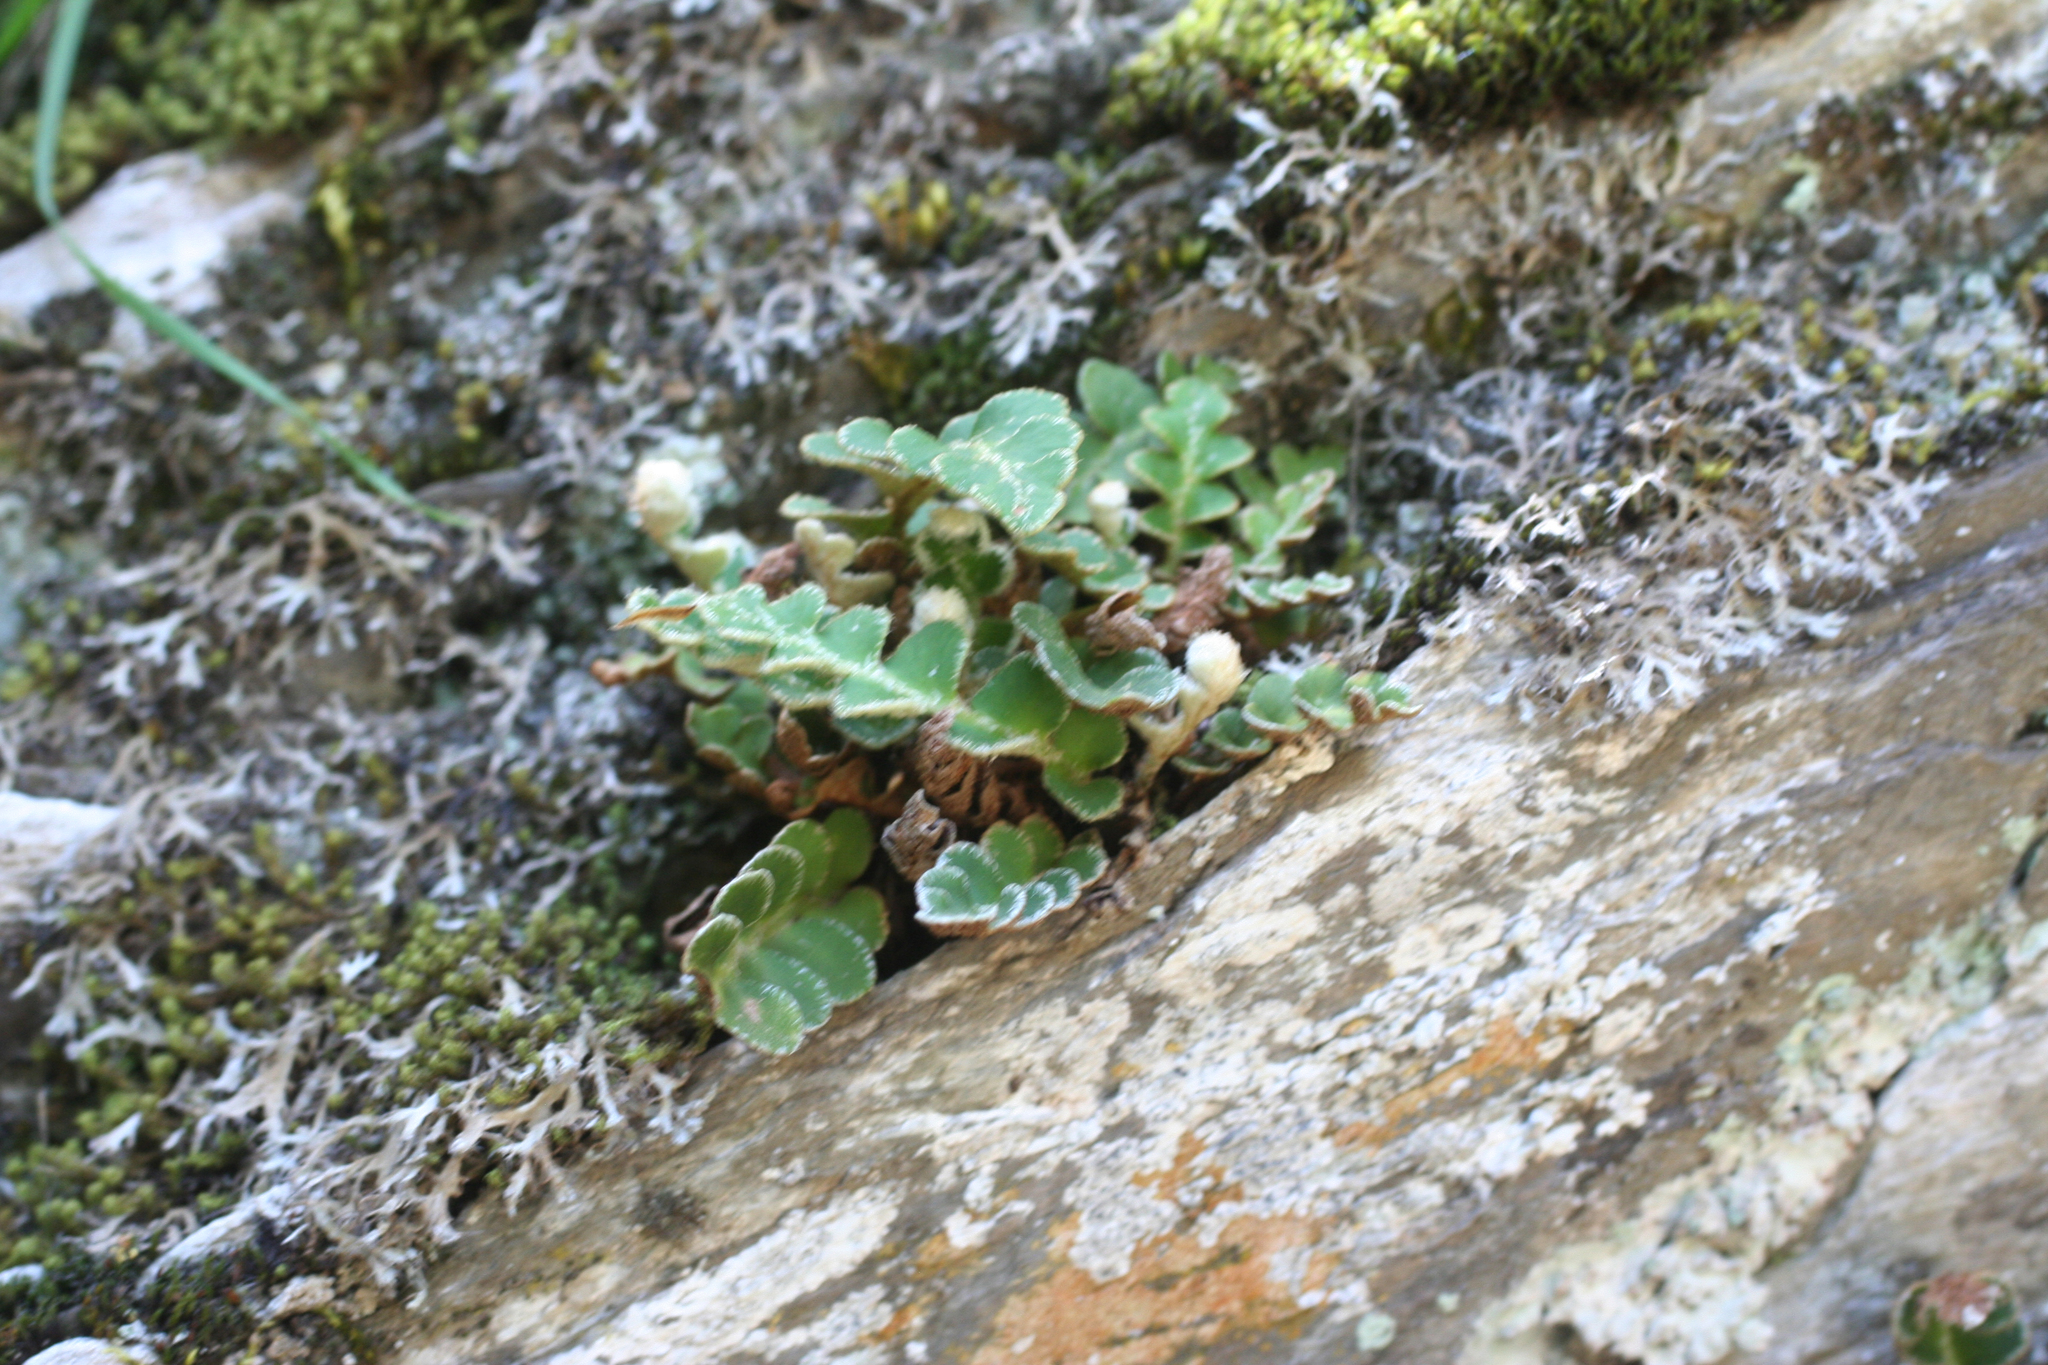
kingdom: Plantae
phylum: Tracheophyta
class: Polypodiopsida
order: Polypodiales
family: Aspleniaceae
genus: Asplenium
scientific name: Asplenium ceterach
